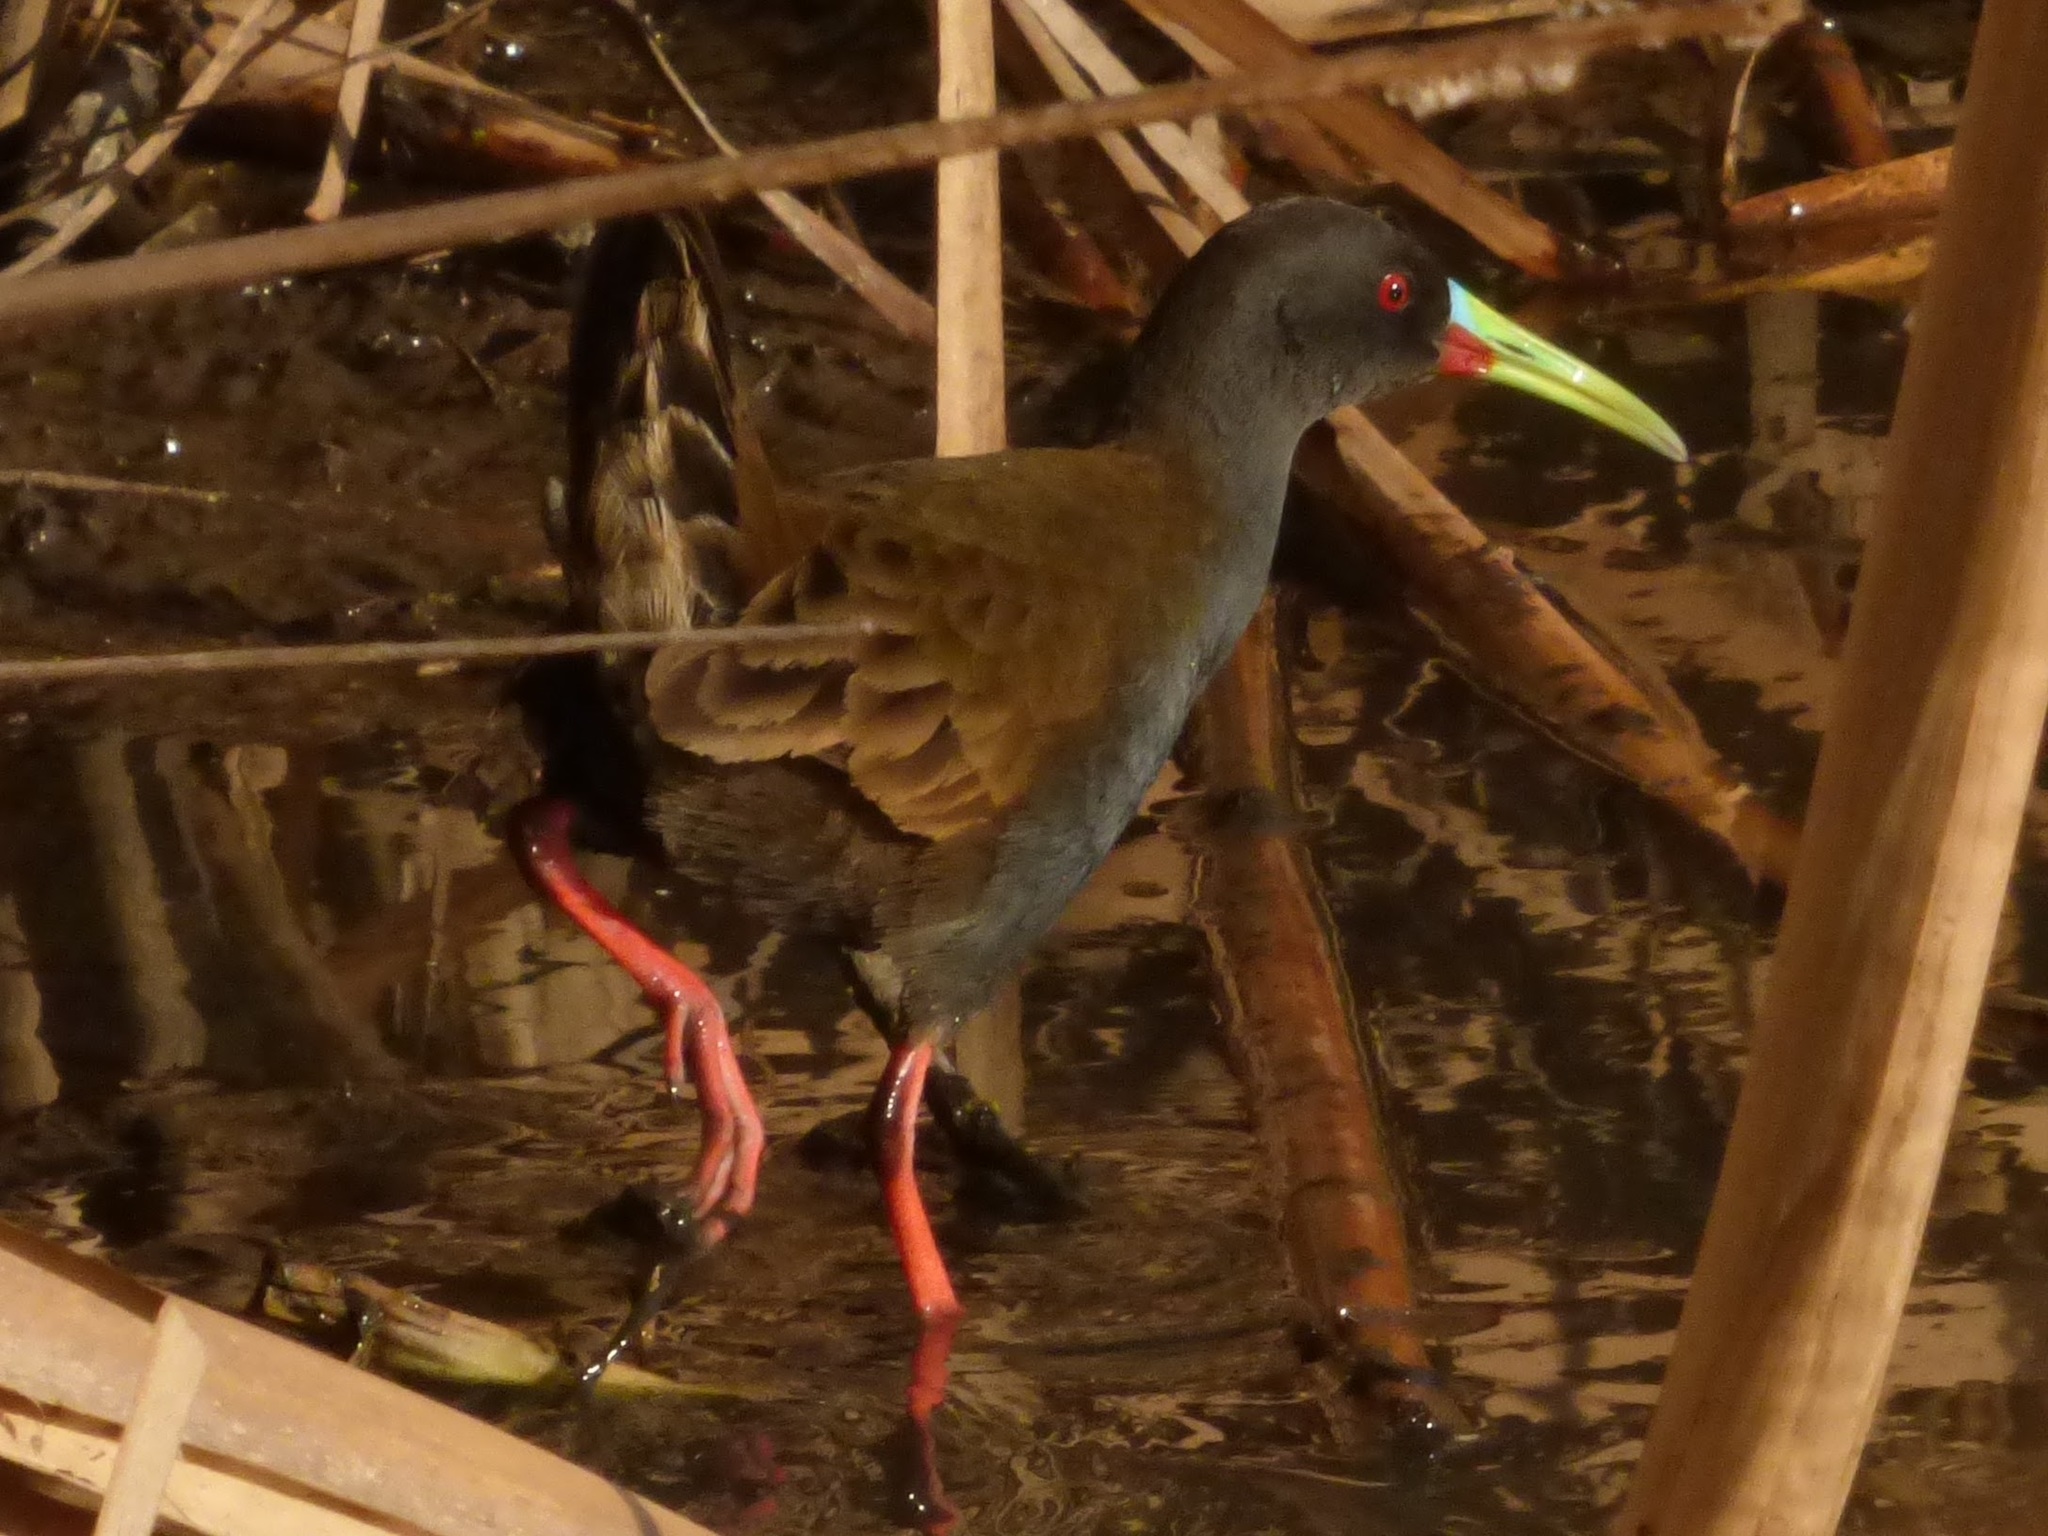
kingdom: Animalia
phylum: Chordata
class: Aves
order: Gruiformes
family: Rallidae
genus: Pardirallus
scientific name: Pardirallus sanguinolentus
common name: Plumbeous rail
